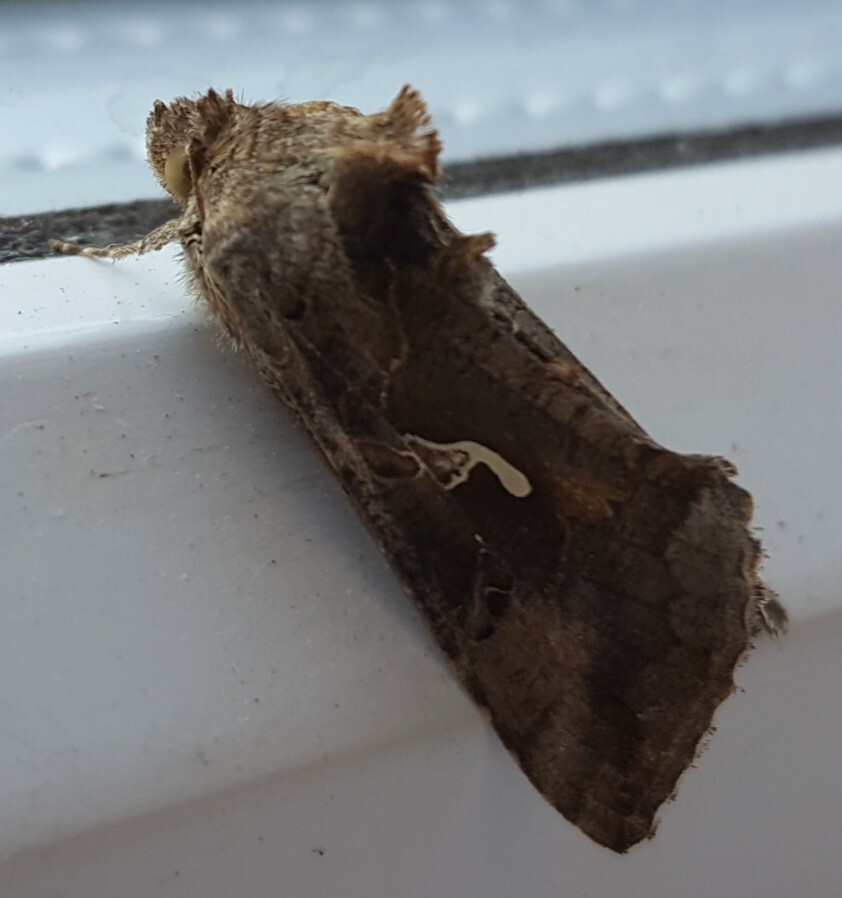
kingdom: Animalia
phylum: Arthropoda
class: Insecta
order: Lepidoptera
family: Noctuidae
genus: Autographa
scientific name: Autographa gamma
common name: Silver y
